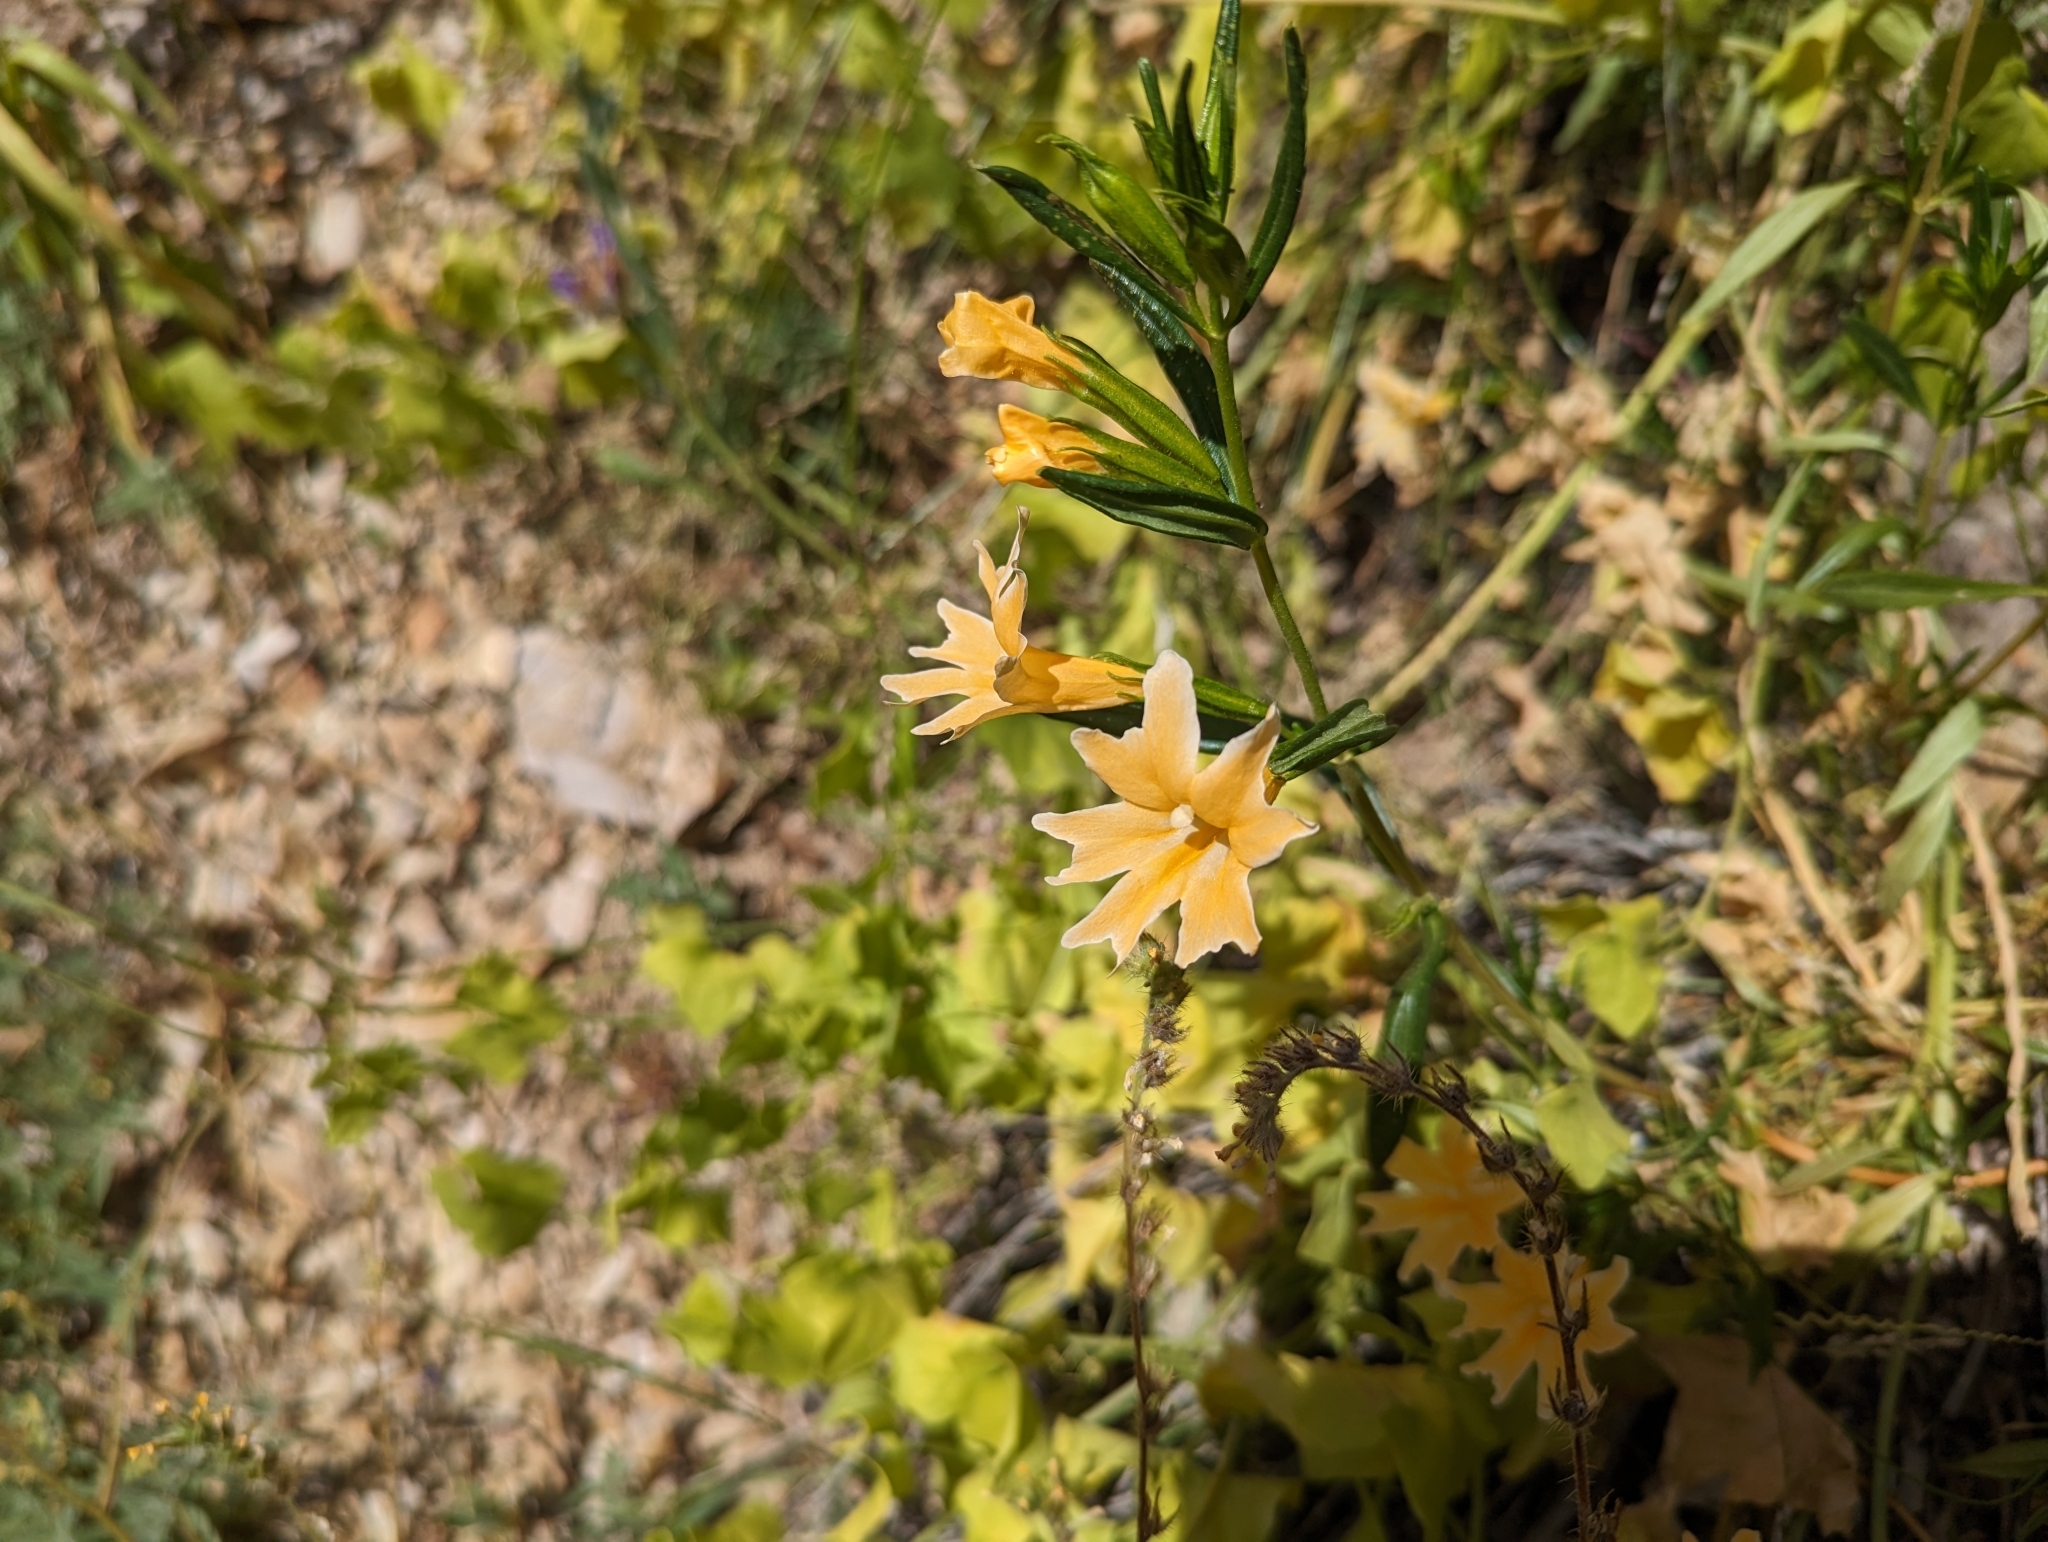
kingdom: Plantae
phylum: Tracheophyta
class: Magnoliopsida
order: Lamiales
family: Phrymaceae
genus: Diplacus
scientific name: Diplacus linearis
